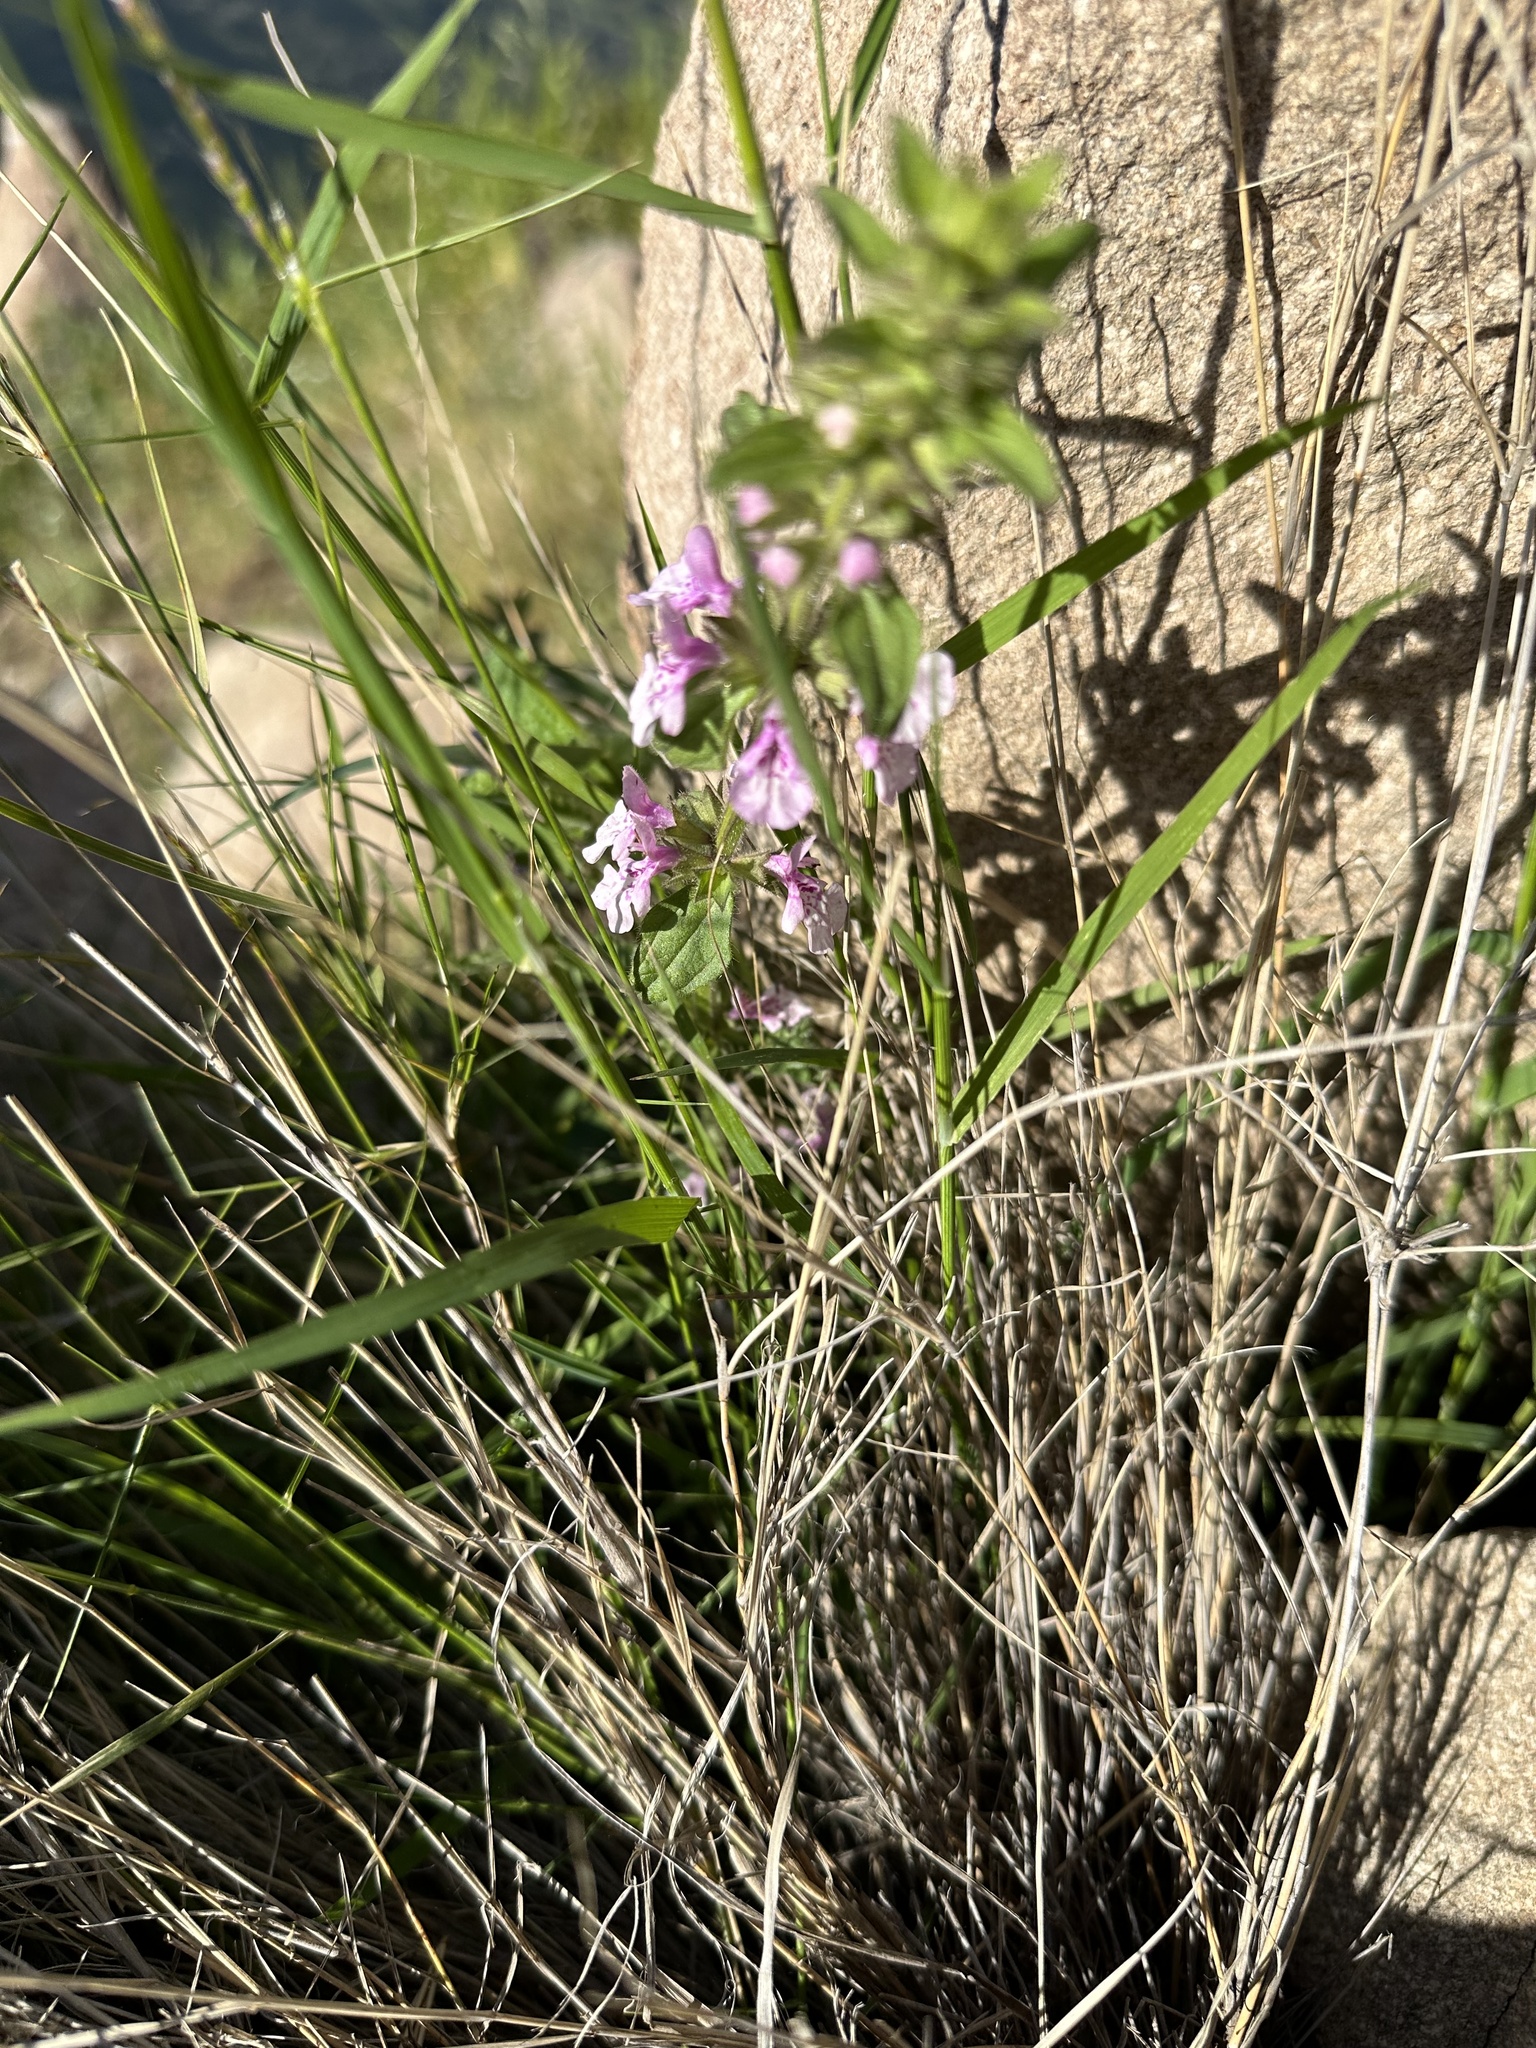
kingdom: Plantae
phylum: Tracheophyta
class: Magnoliopsida
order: Lamiales
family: Lamiaceae
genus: Stachys
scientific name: Stachys grandidentata
